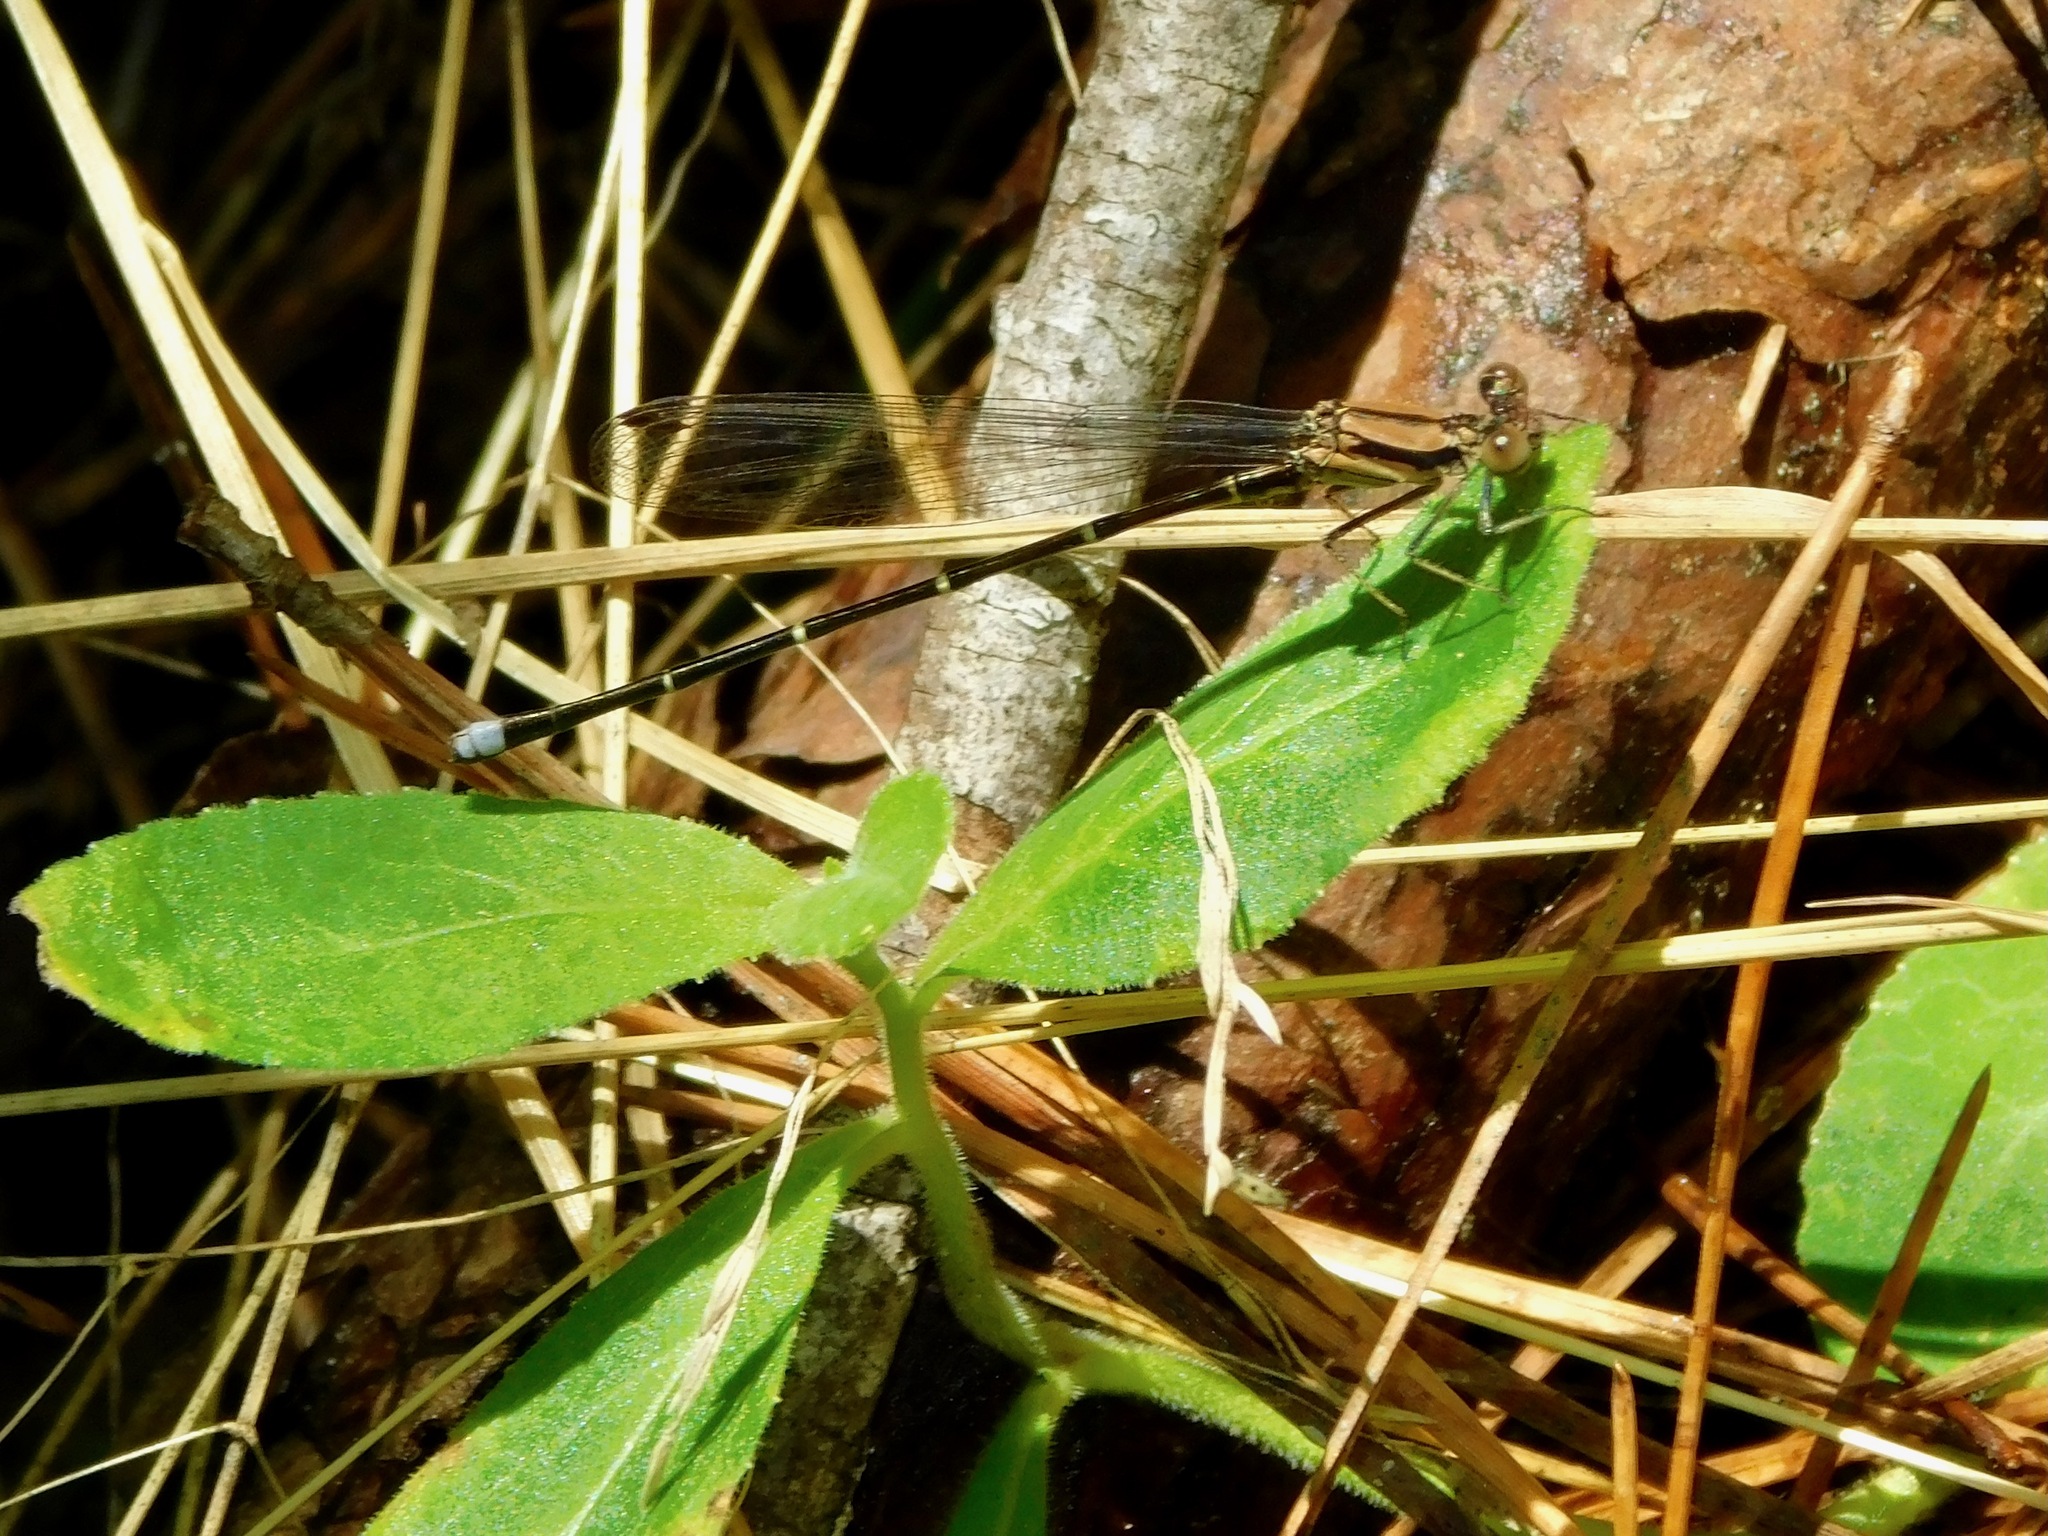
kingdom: Animalia
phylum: Arthropoda
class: Insecta
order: Odonata
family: Coenagrionidae
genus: Argia
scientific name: Argia tibialis
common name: Blue-tipped dancer
